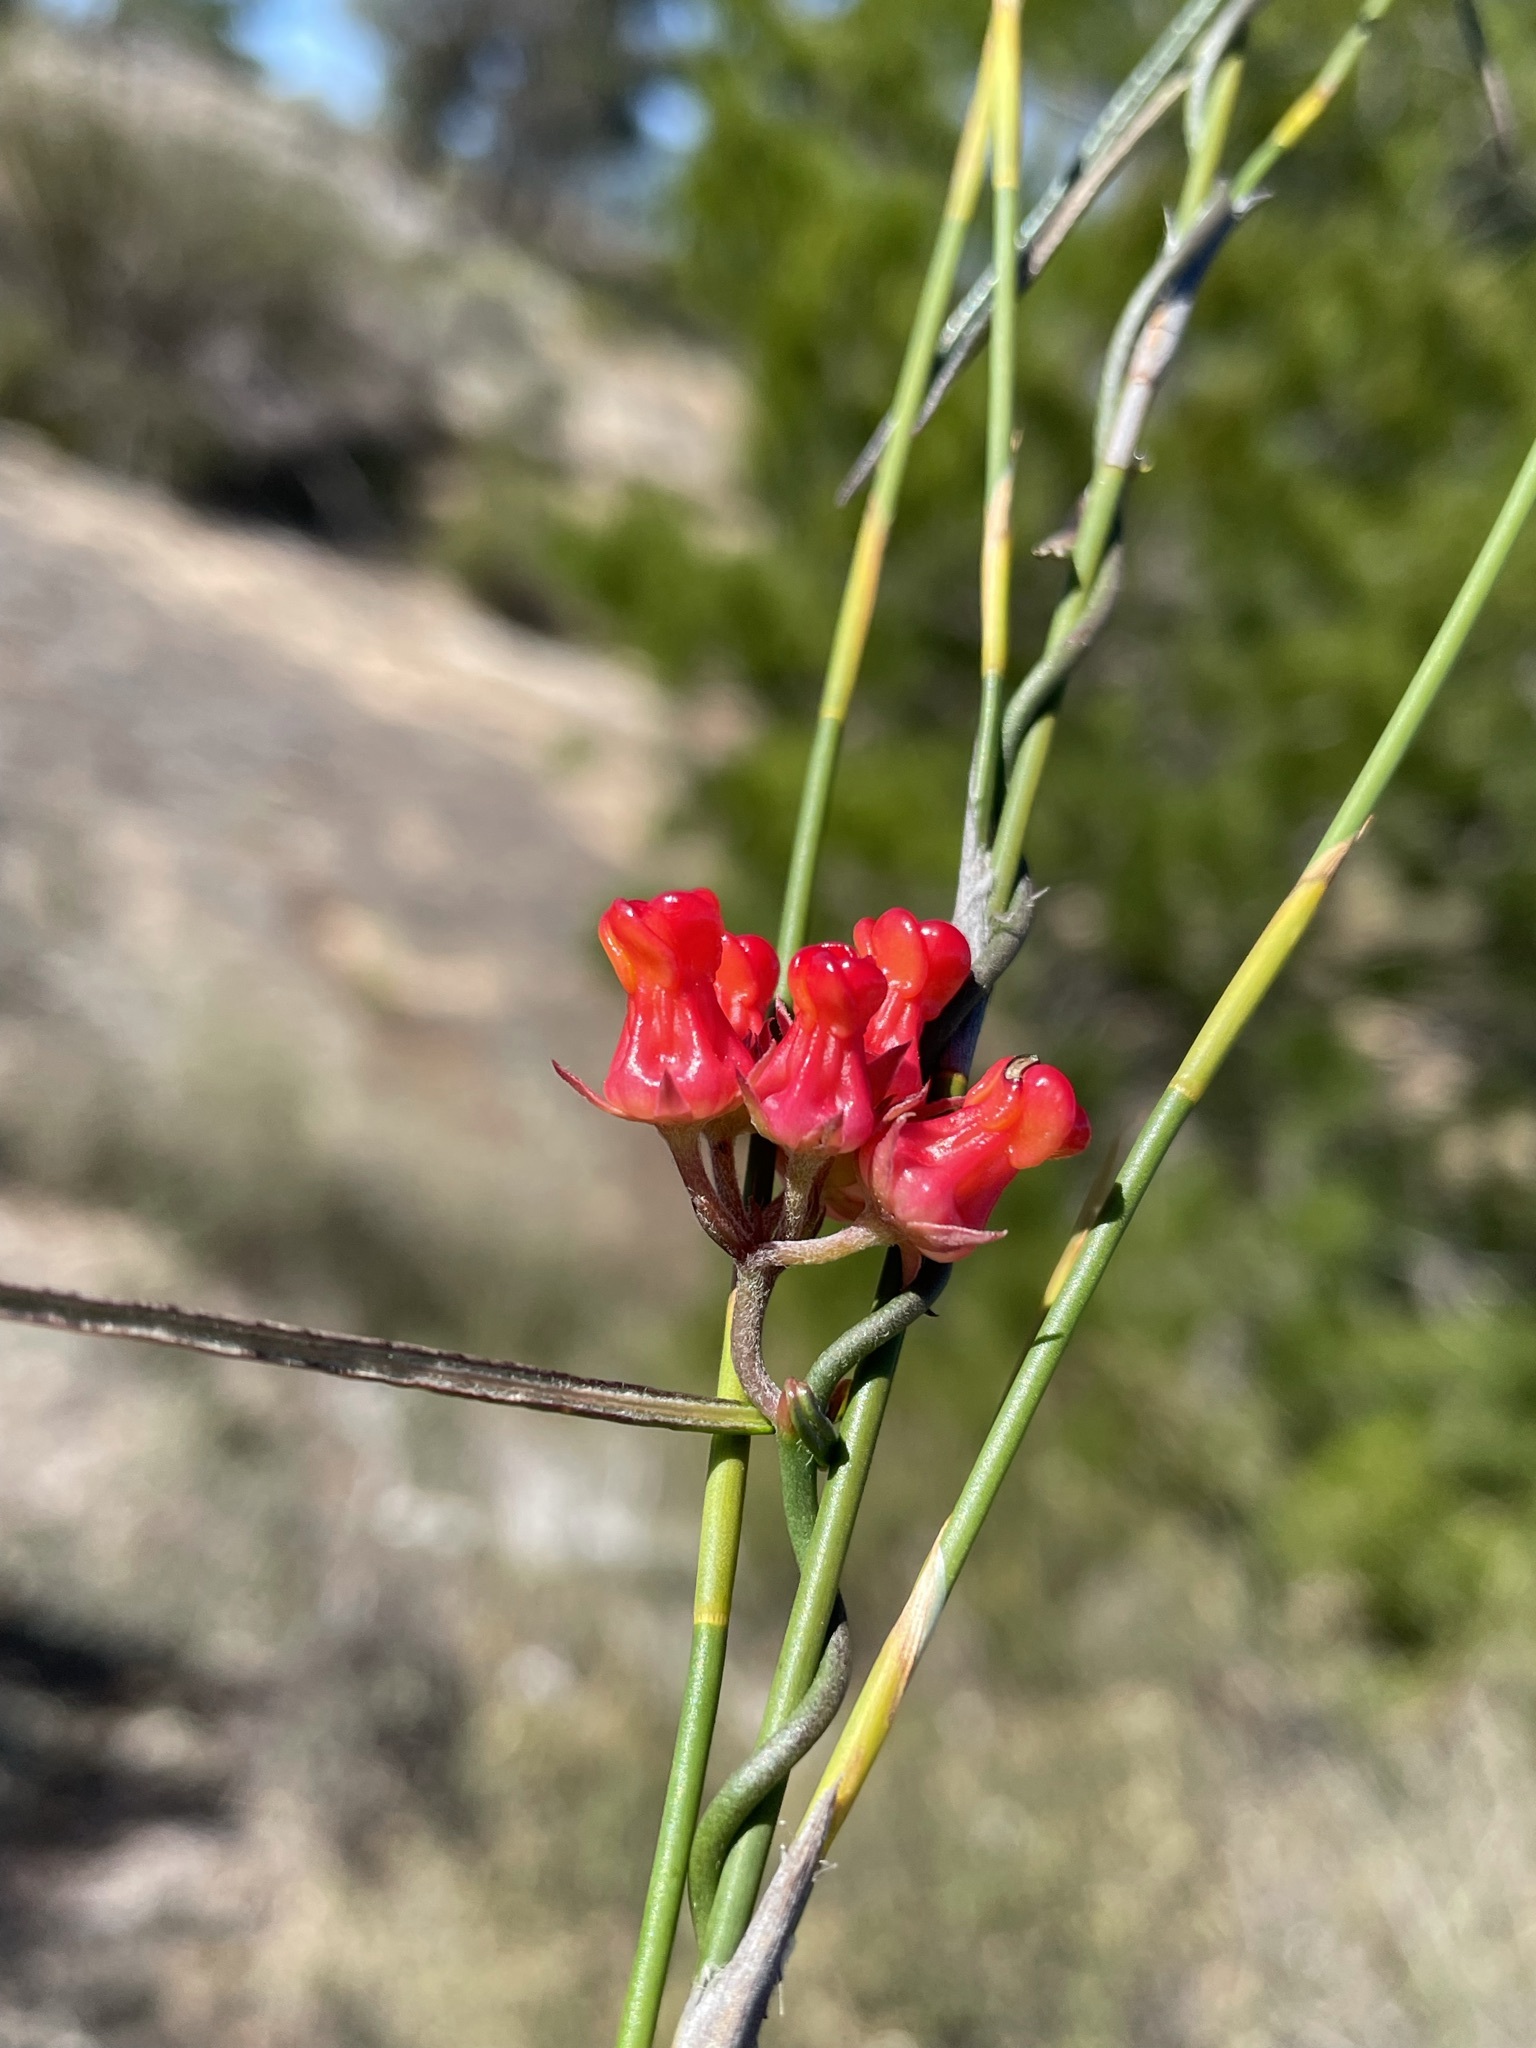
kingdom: Plantae
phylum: Tracheophyta
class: Magnoliopsida
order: Gentianales
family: Apocynaceae
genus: Microloma
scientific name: Microloma tenuifolium
